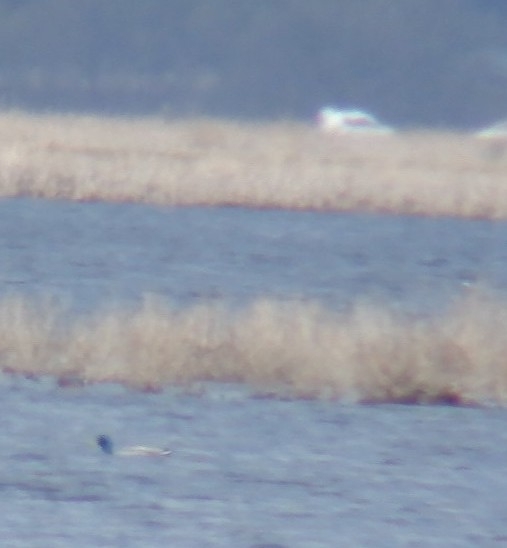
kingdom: Animalia
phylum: Chordata
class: Aves
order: Anseriformes
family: Anatidae
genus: Anas
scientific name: Anas platyrhynchos
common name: Mallard
